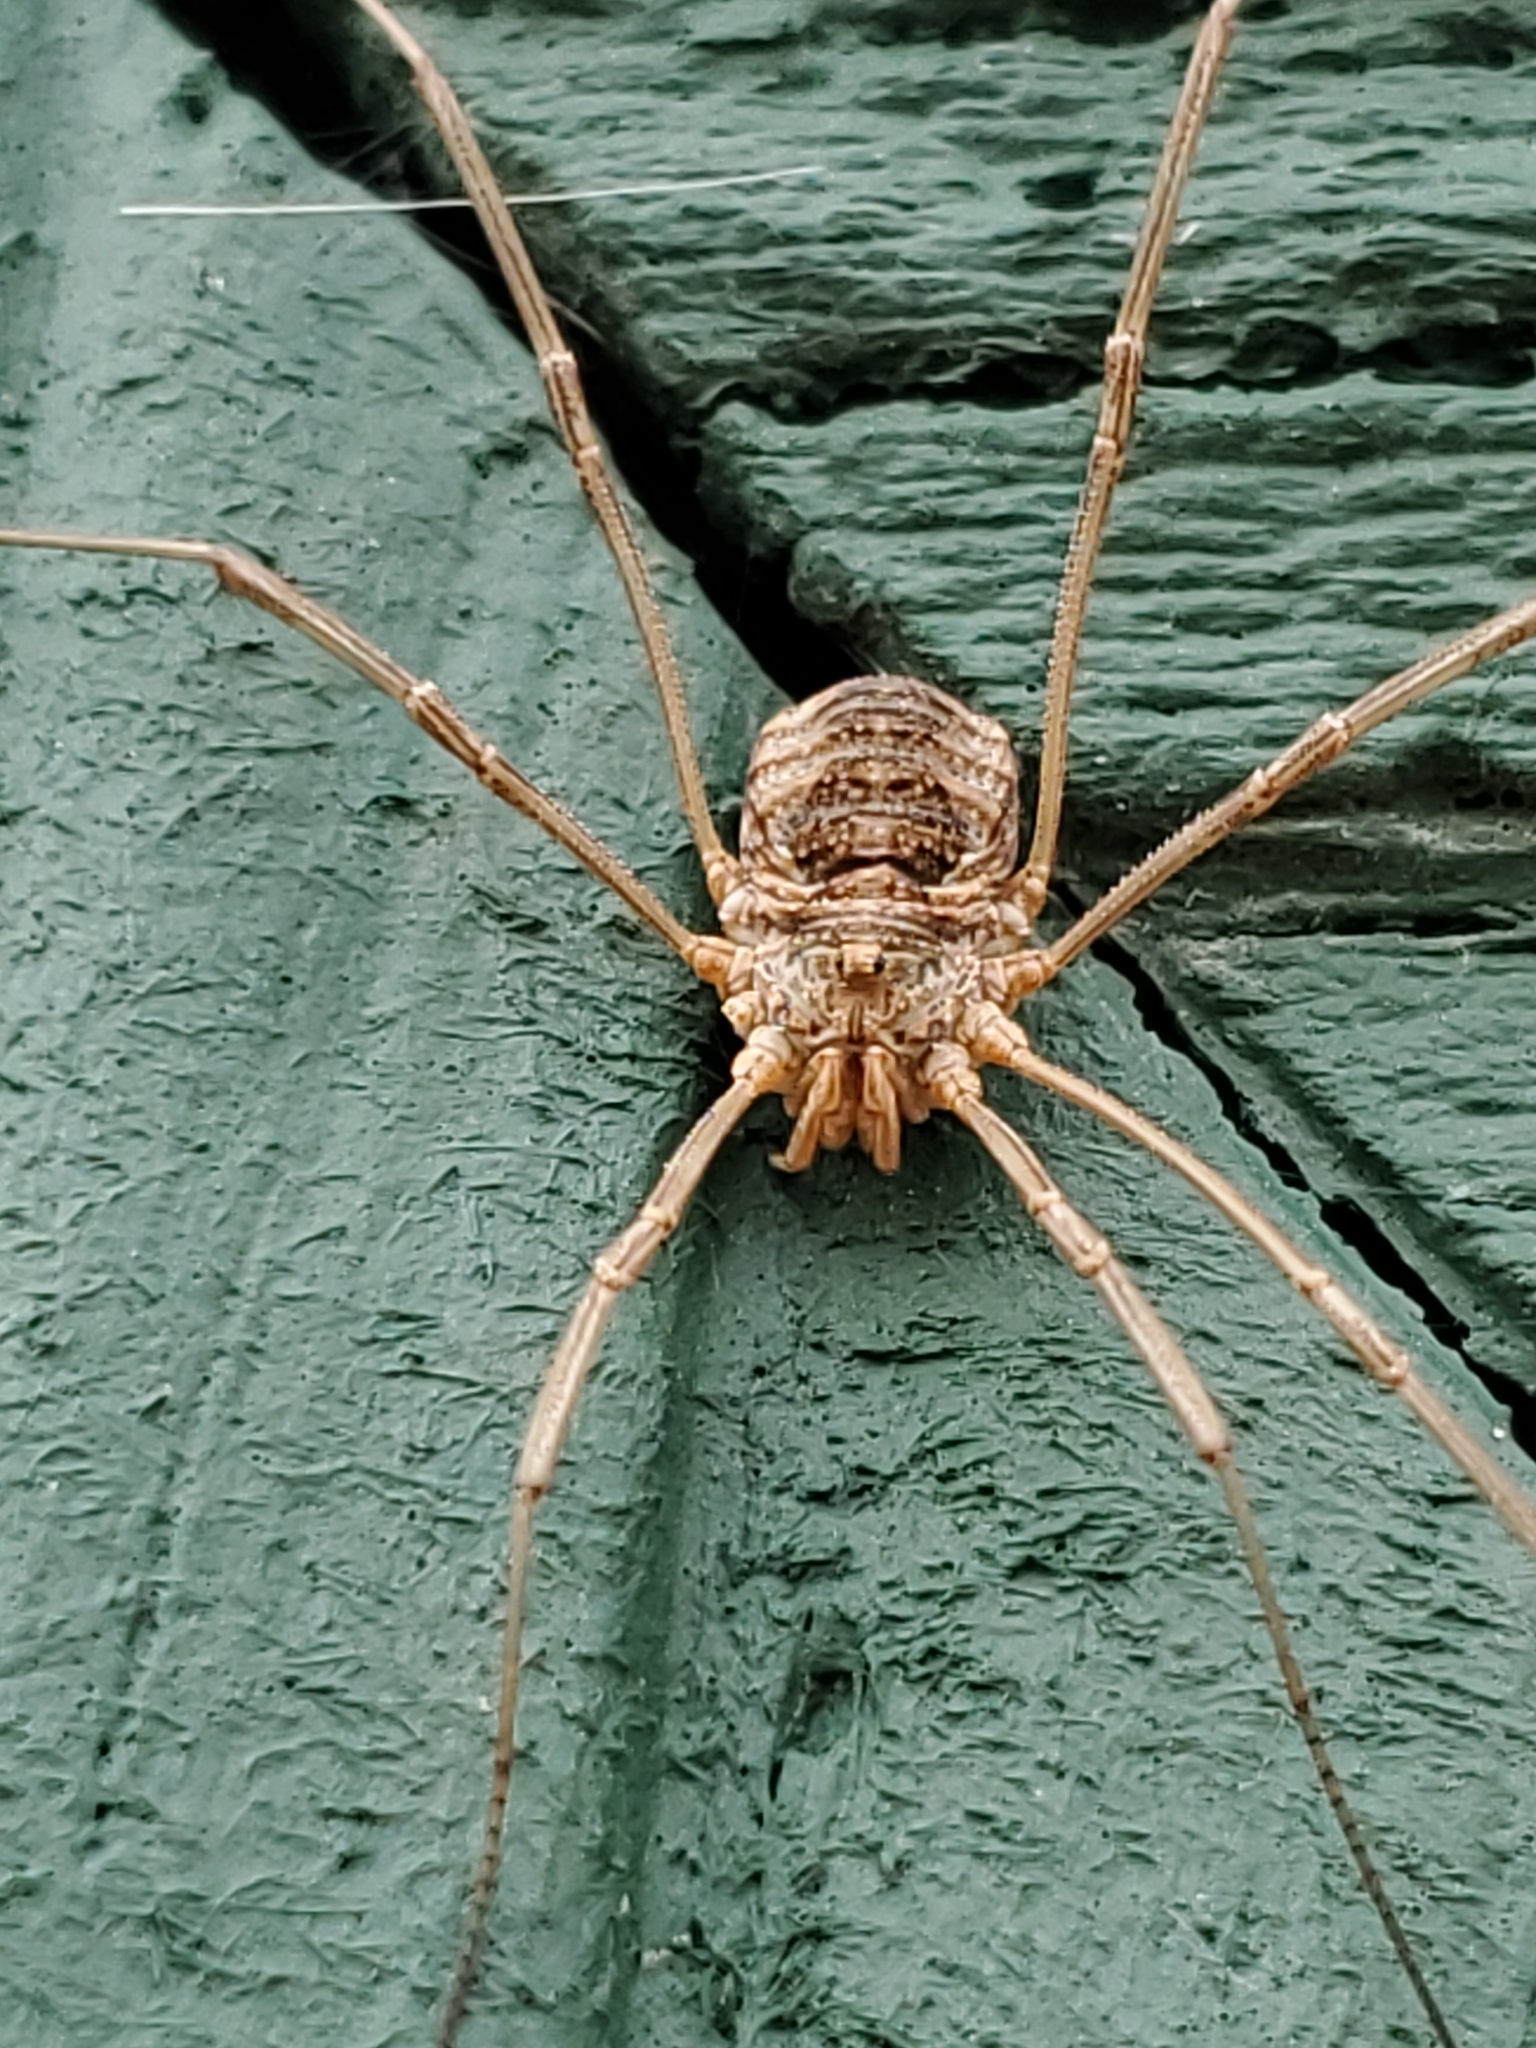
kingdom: Animalia
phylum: Arthropoda
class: Arachnida
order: Opiliones
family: Phalangiidae
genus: Phalangium
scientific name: Phalangium opilio
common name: Daddy longleg
